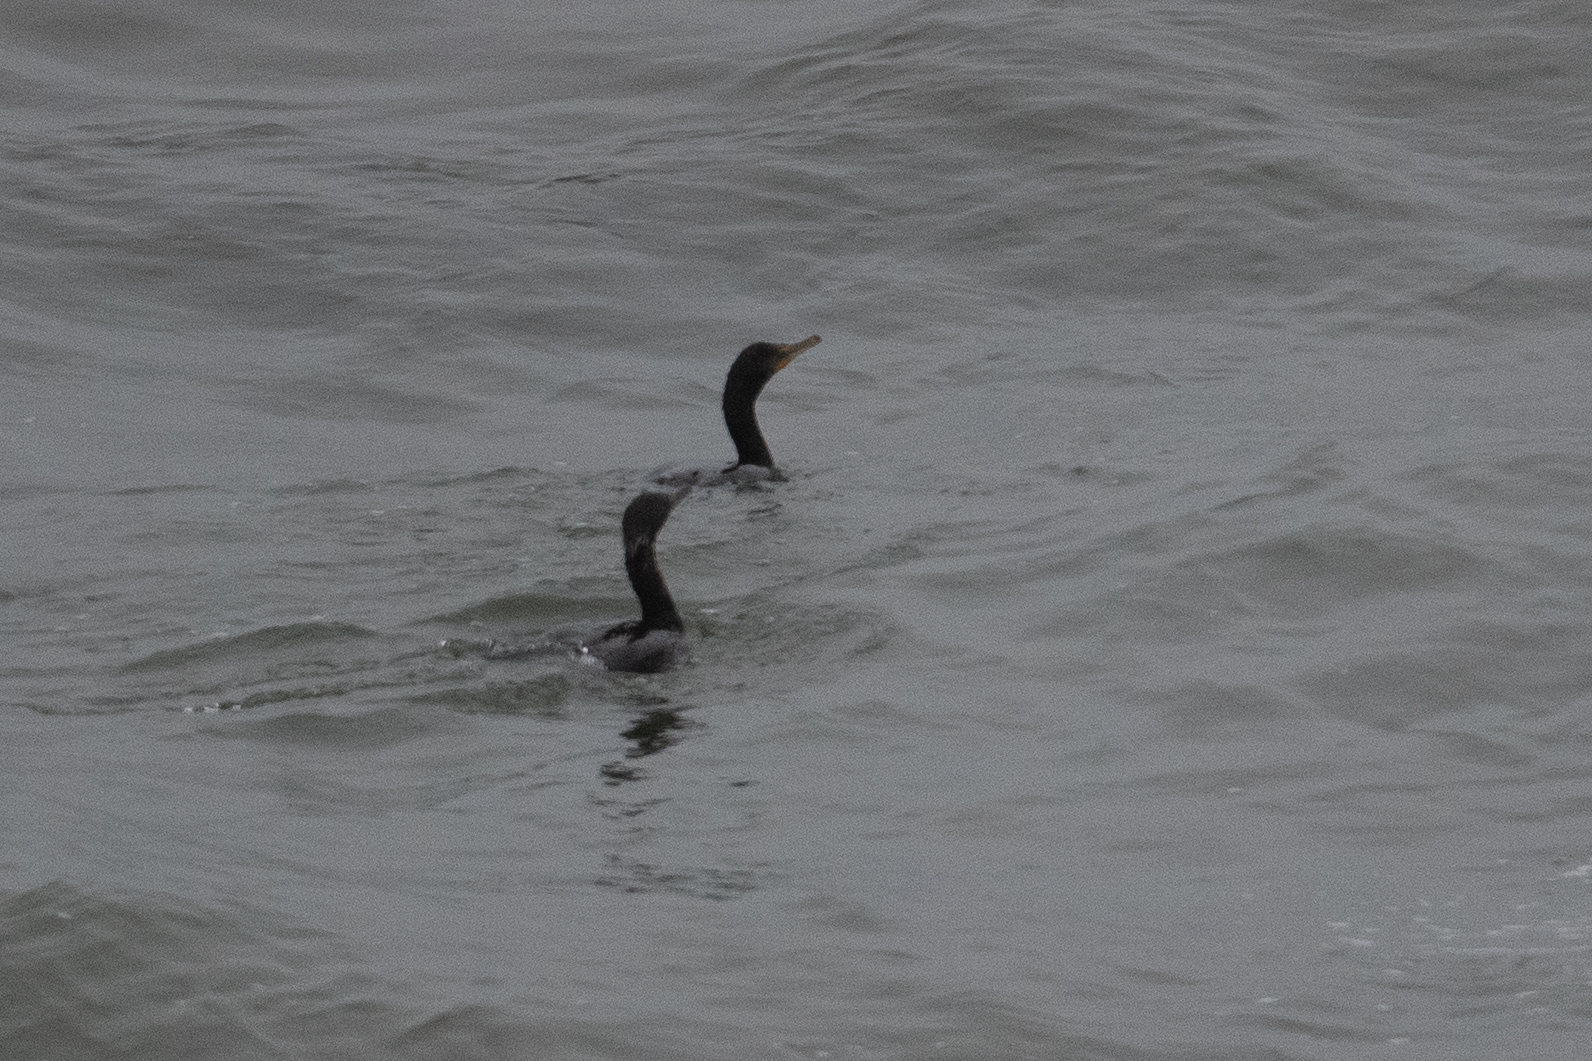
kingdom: Animalia
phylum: Chordata
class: Aves
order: Suliformes
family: Phalacrocoracidae
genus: Phalacrocorax
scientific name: Phalacrocorax auritus
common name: Double-crested cormorant
